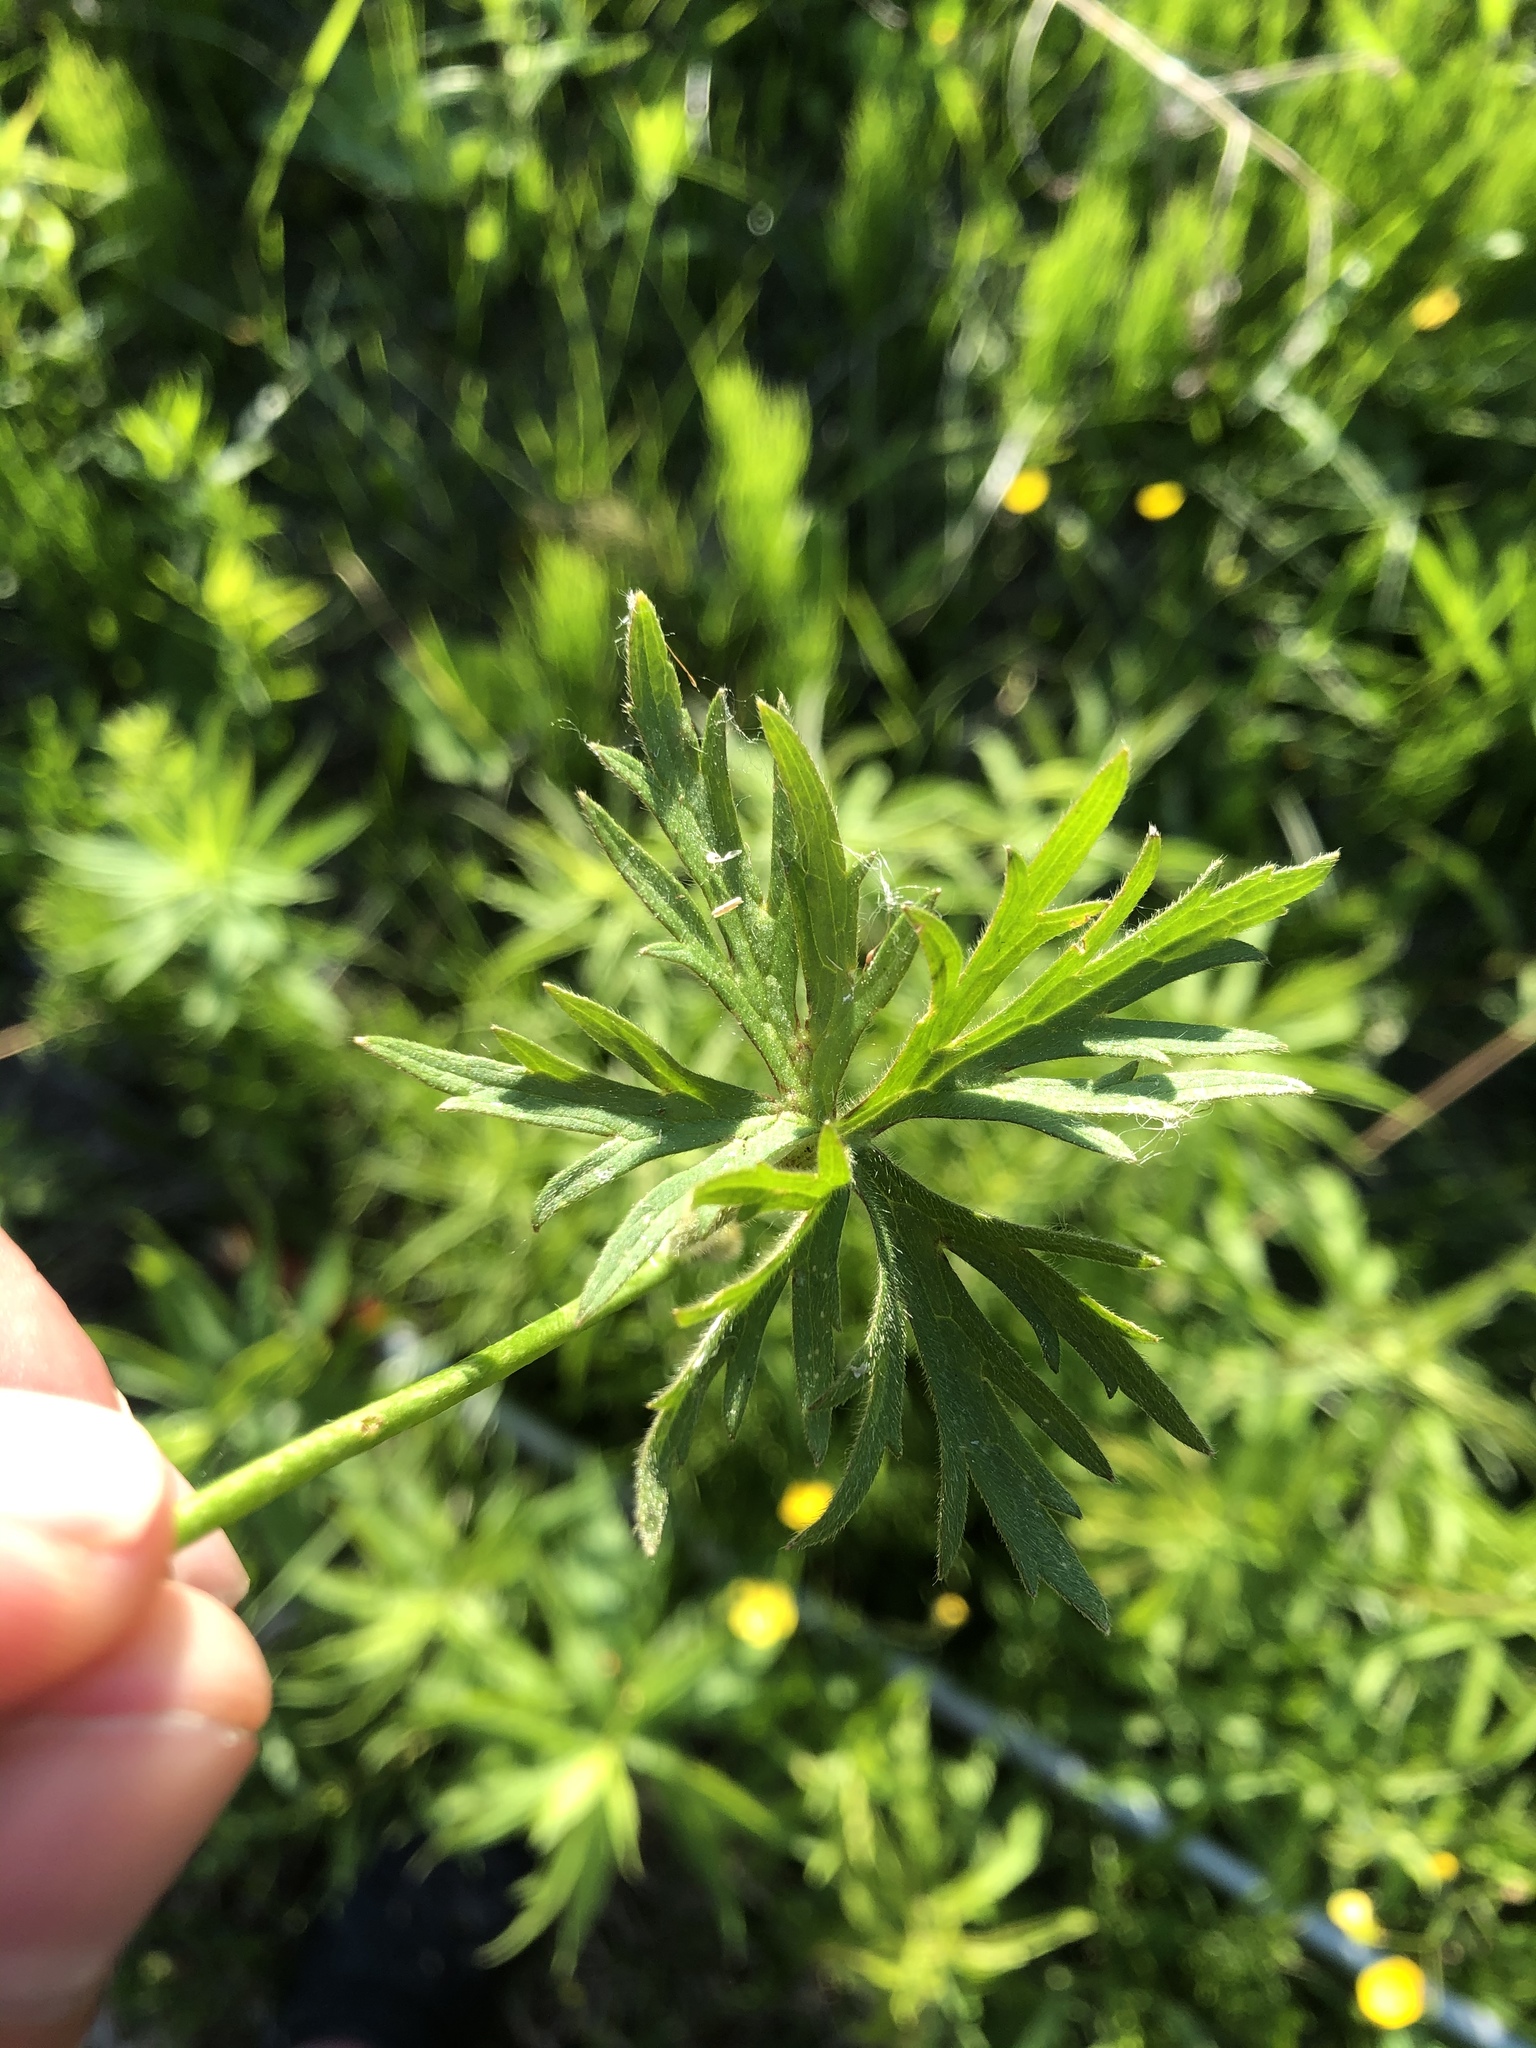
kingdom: Plantae
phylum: Tracheophyta
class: Magnoliopsida
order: Ranunculales
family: Ranunculaceae
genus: Ranunculus
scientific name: Ranunculus acris
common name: Meadow buttercup
